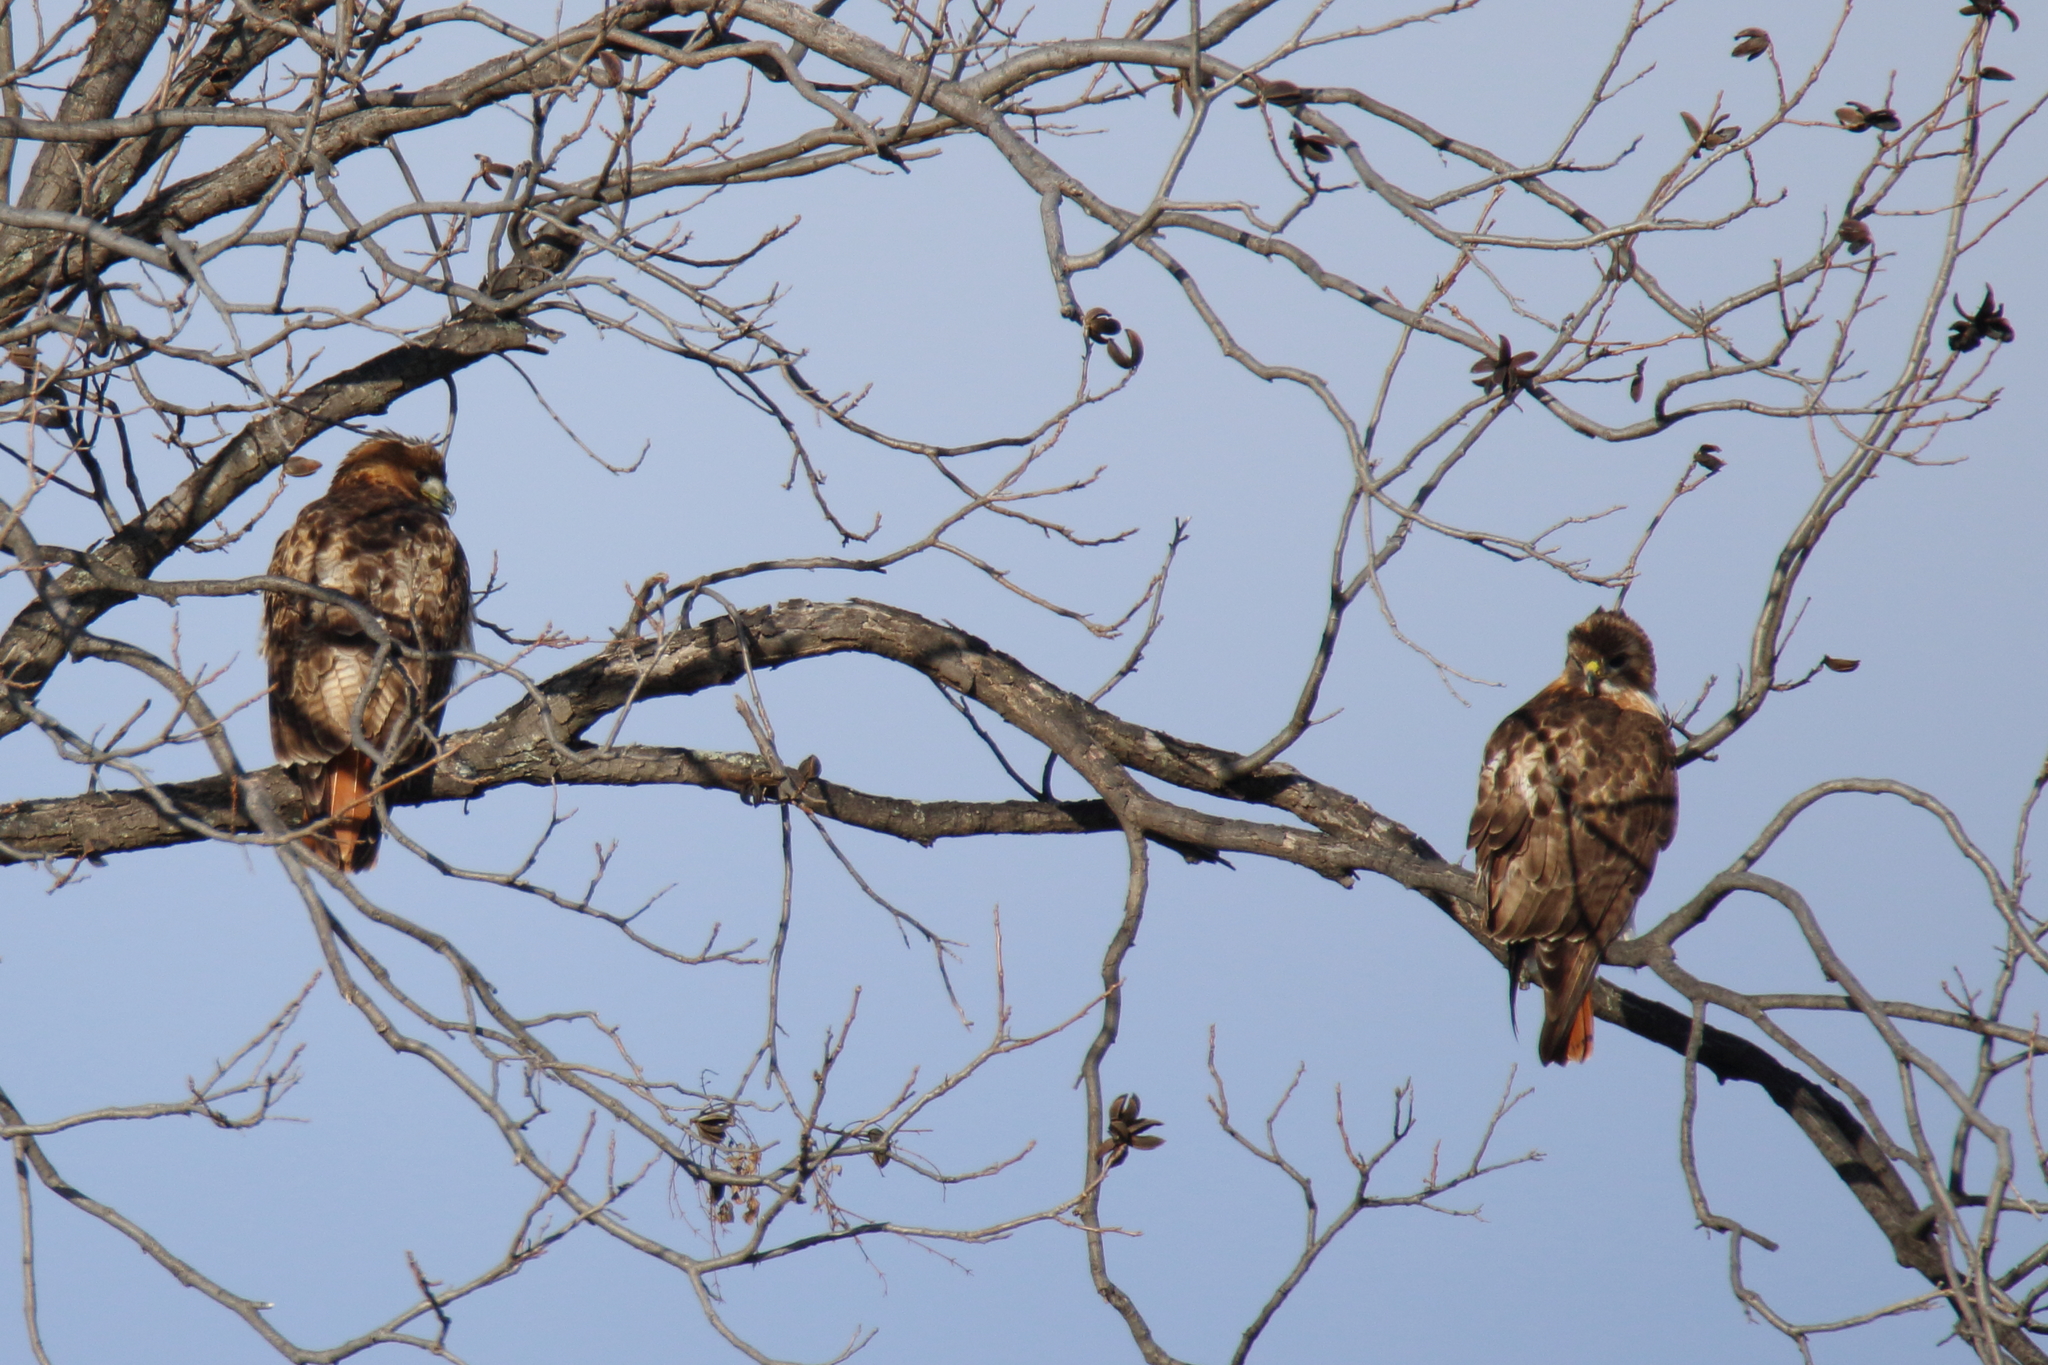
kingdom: Animalia
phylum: Chordata
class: Aves
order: Accipitriformes
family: Accipitridae
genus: Buteo
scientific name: Buteo jamaicensis
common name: Red-tailed hawk
